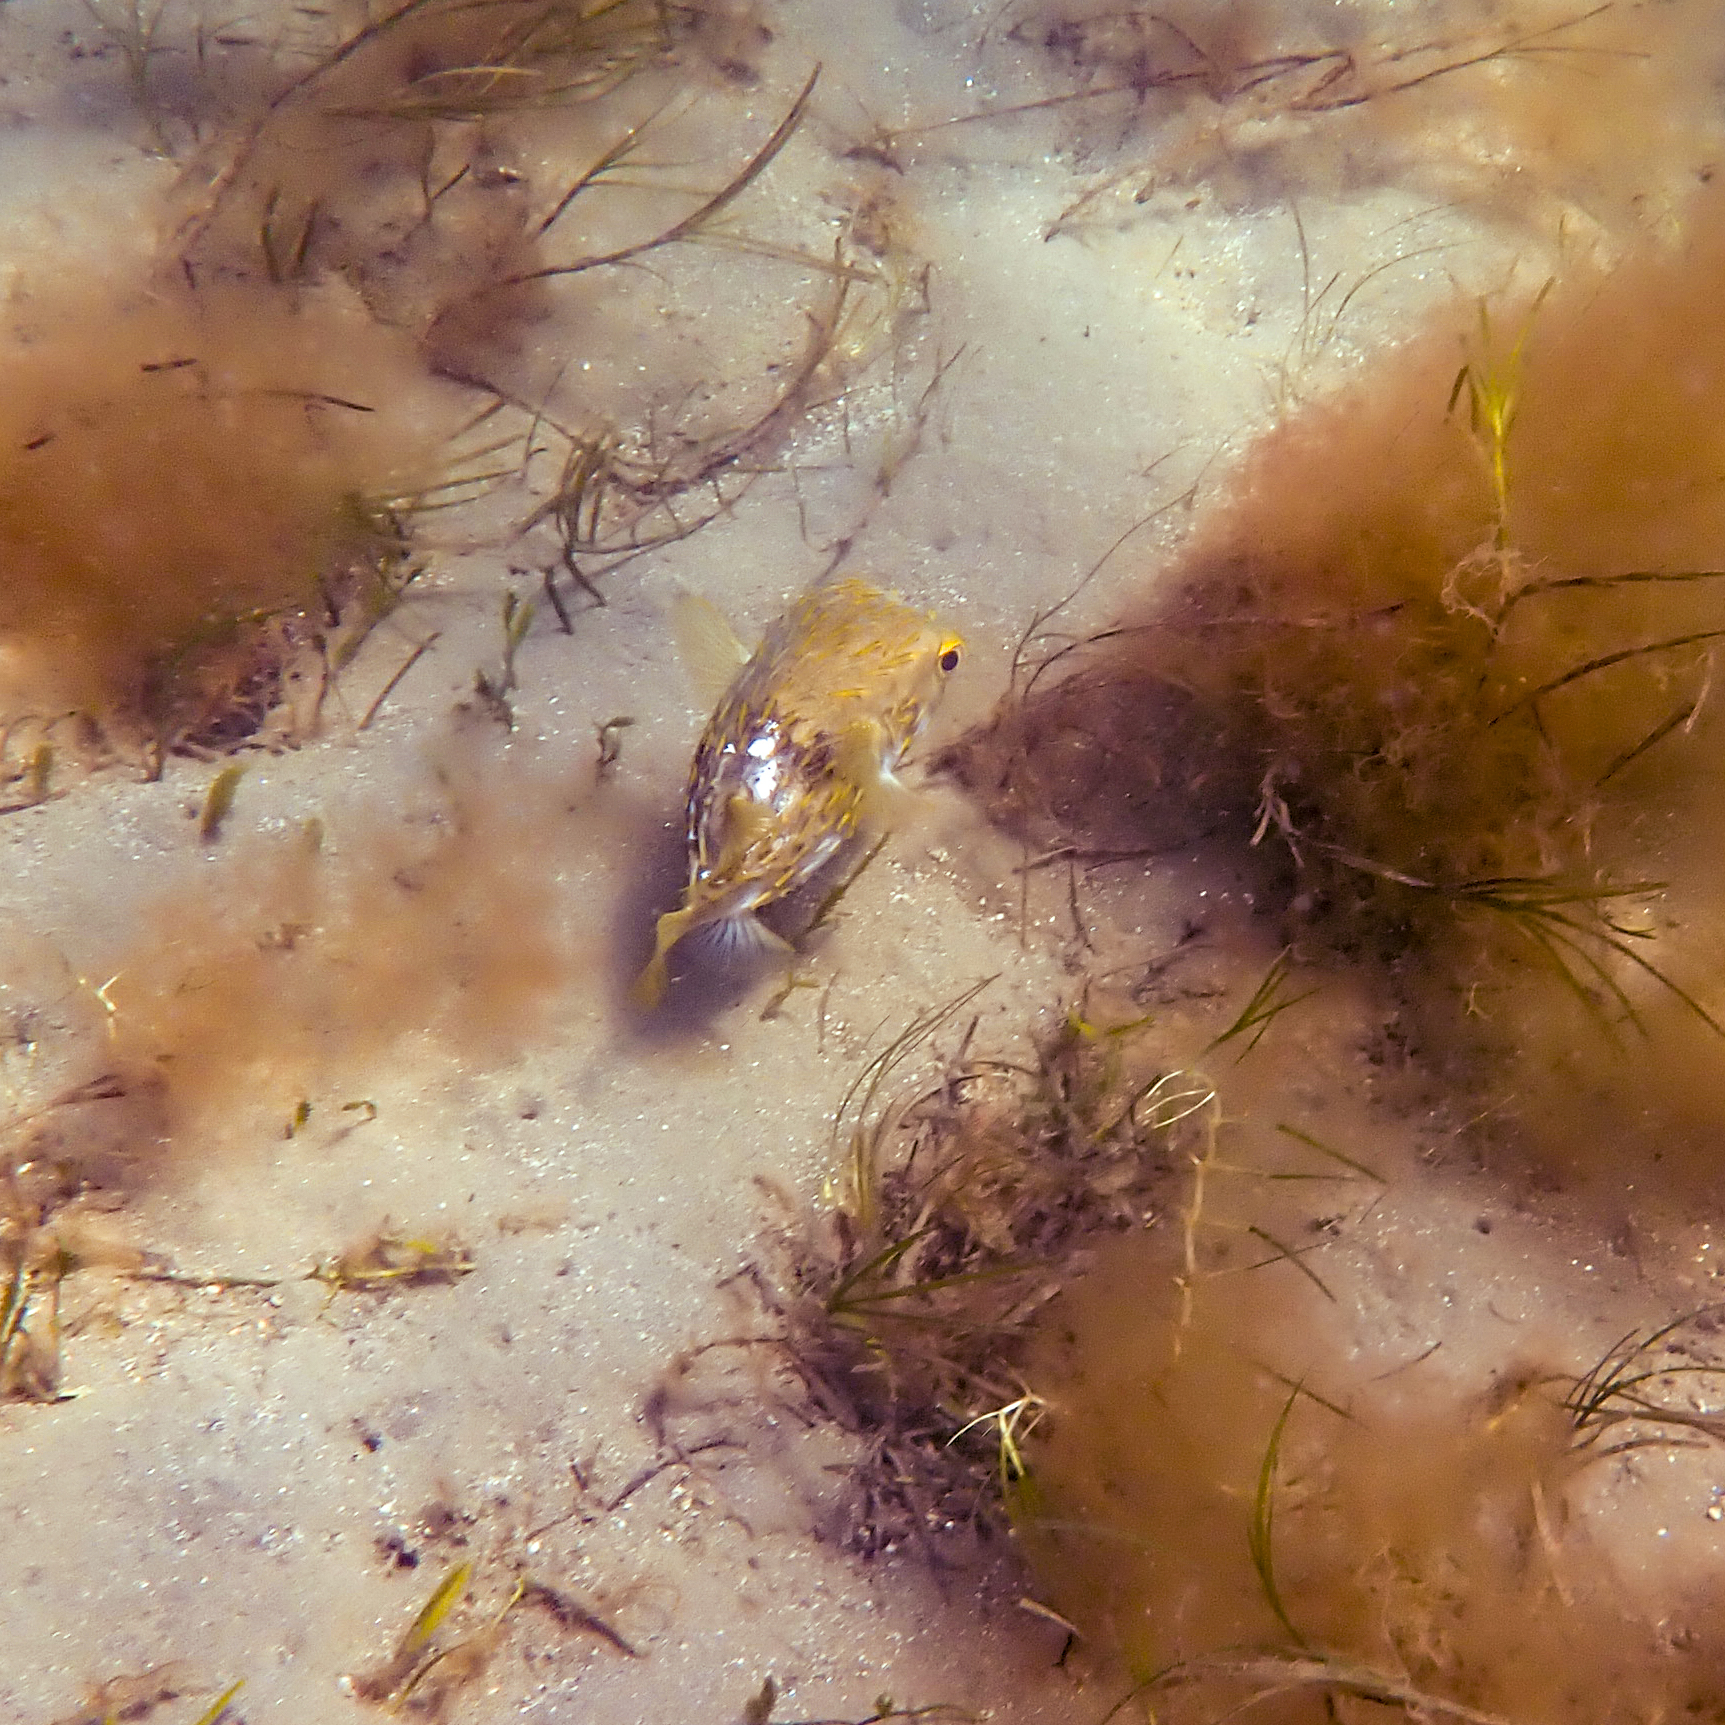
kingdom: Animalia
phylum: Chordata
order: Tetraodontiformes
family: Diodontidae
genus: Diodon
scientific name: Diodon nicthemerus
